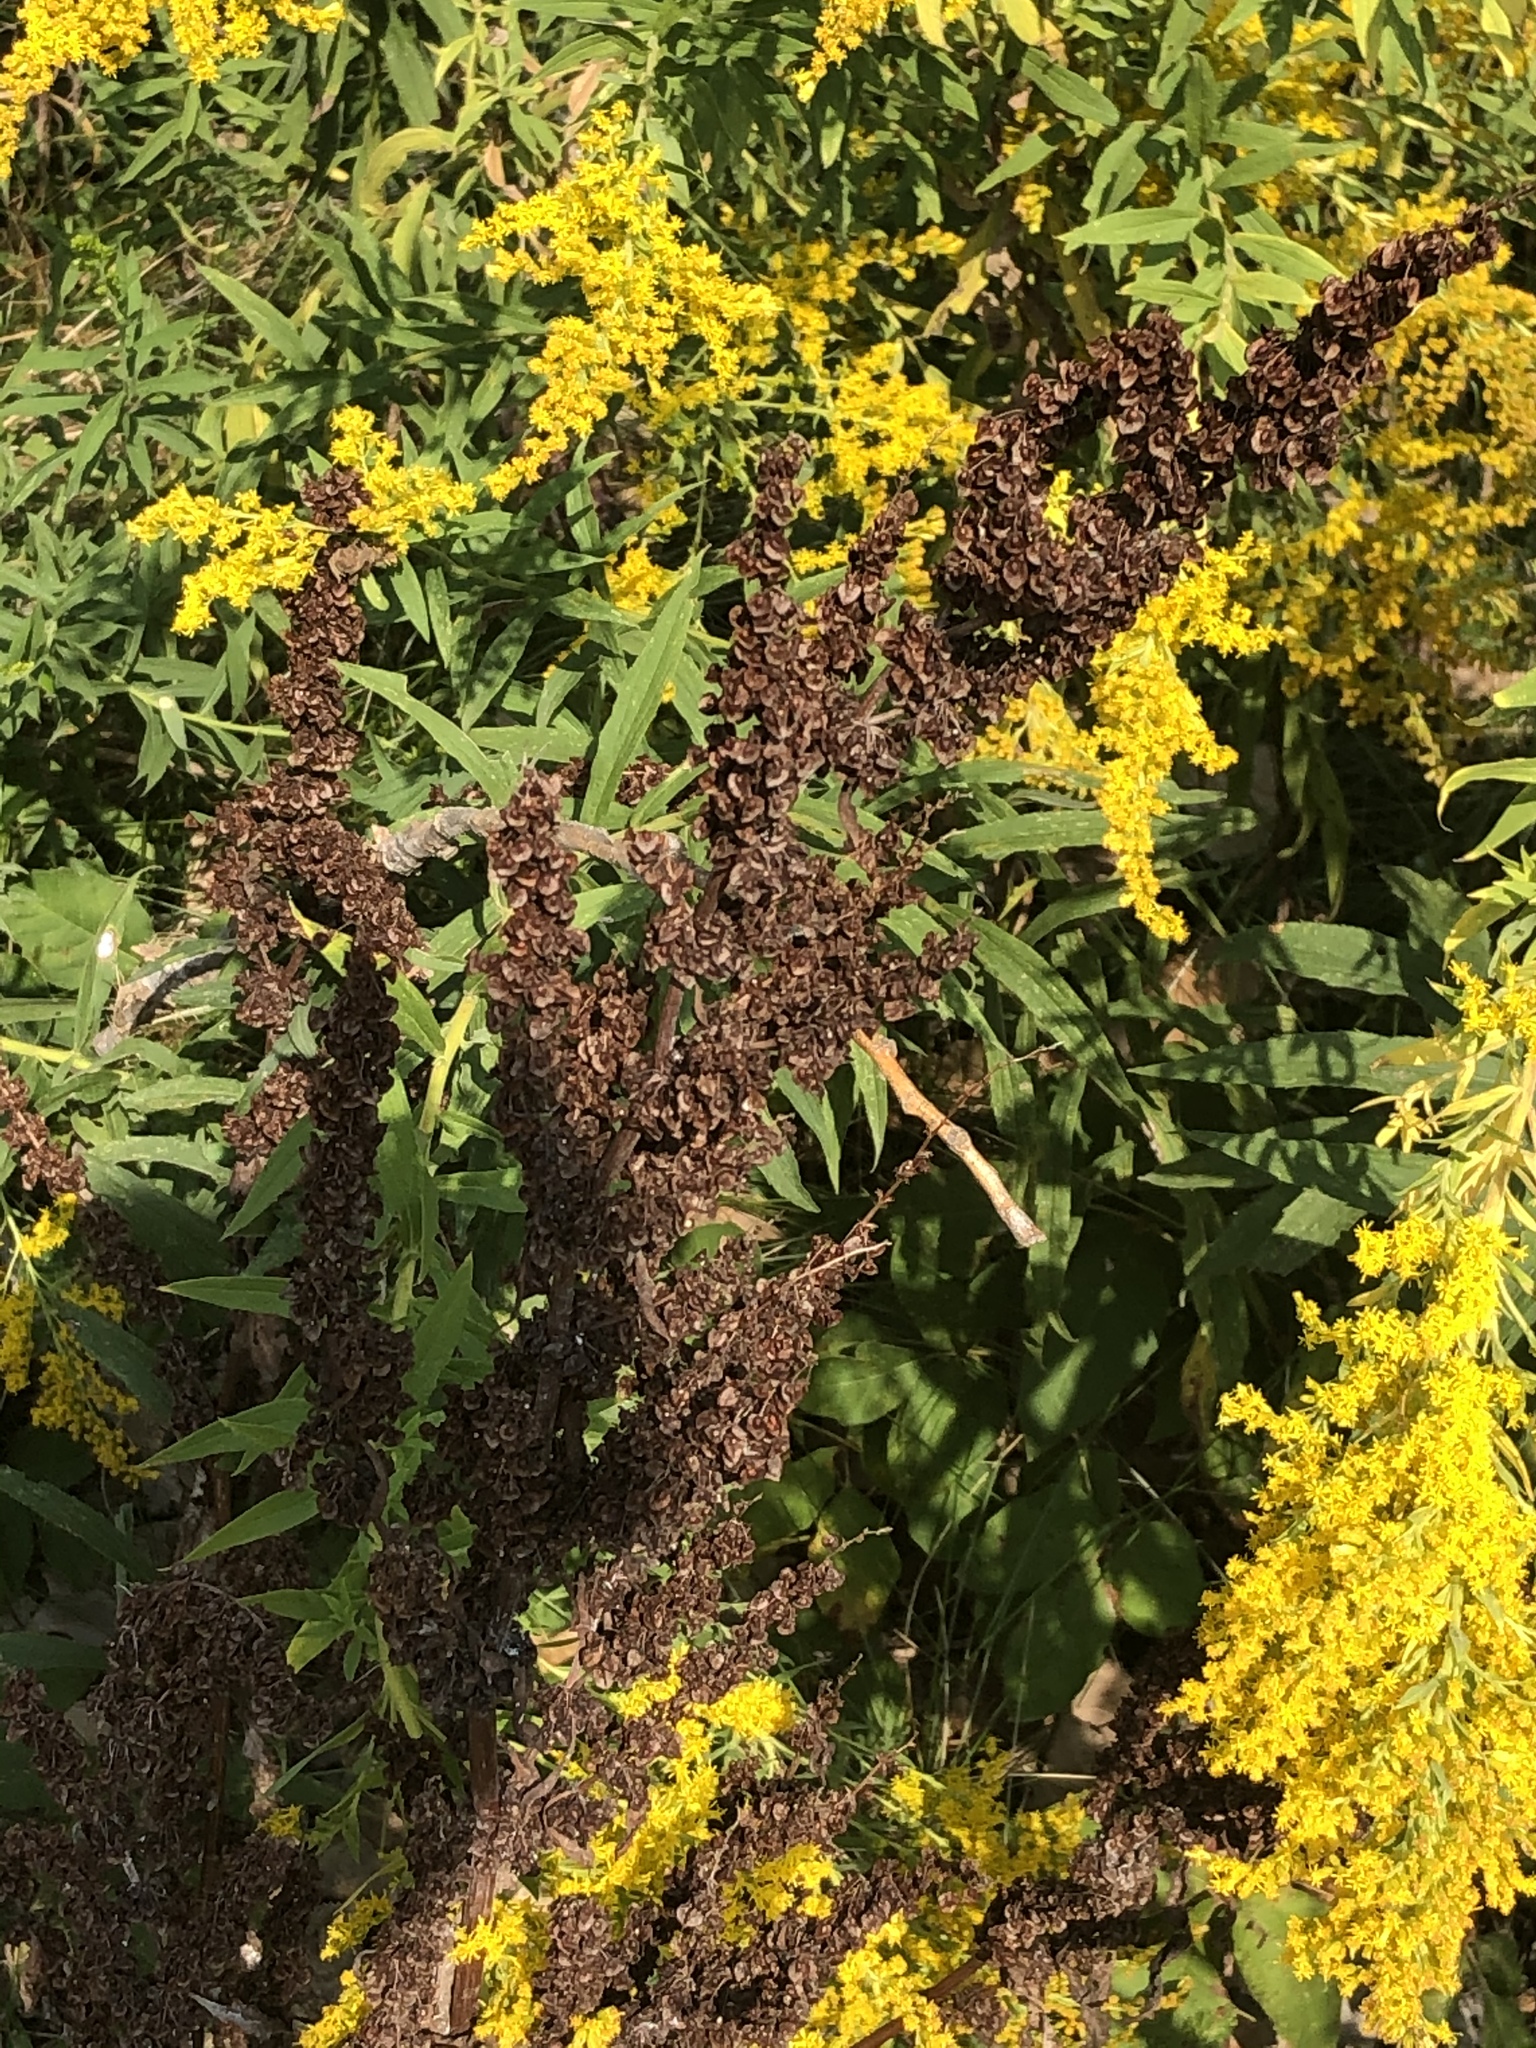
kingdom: Plantae
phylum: Tracheophyta
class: Magnoliopsida
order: Caryophyllales
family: Polygonaceae
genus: Rumex
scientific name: Rumex crispus
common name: Curled dock
